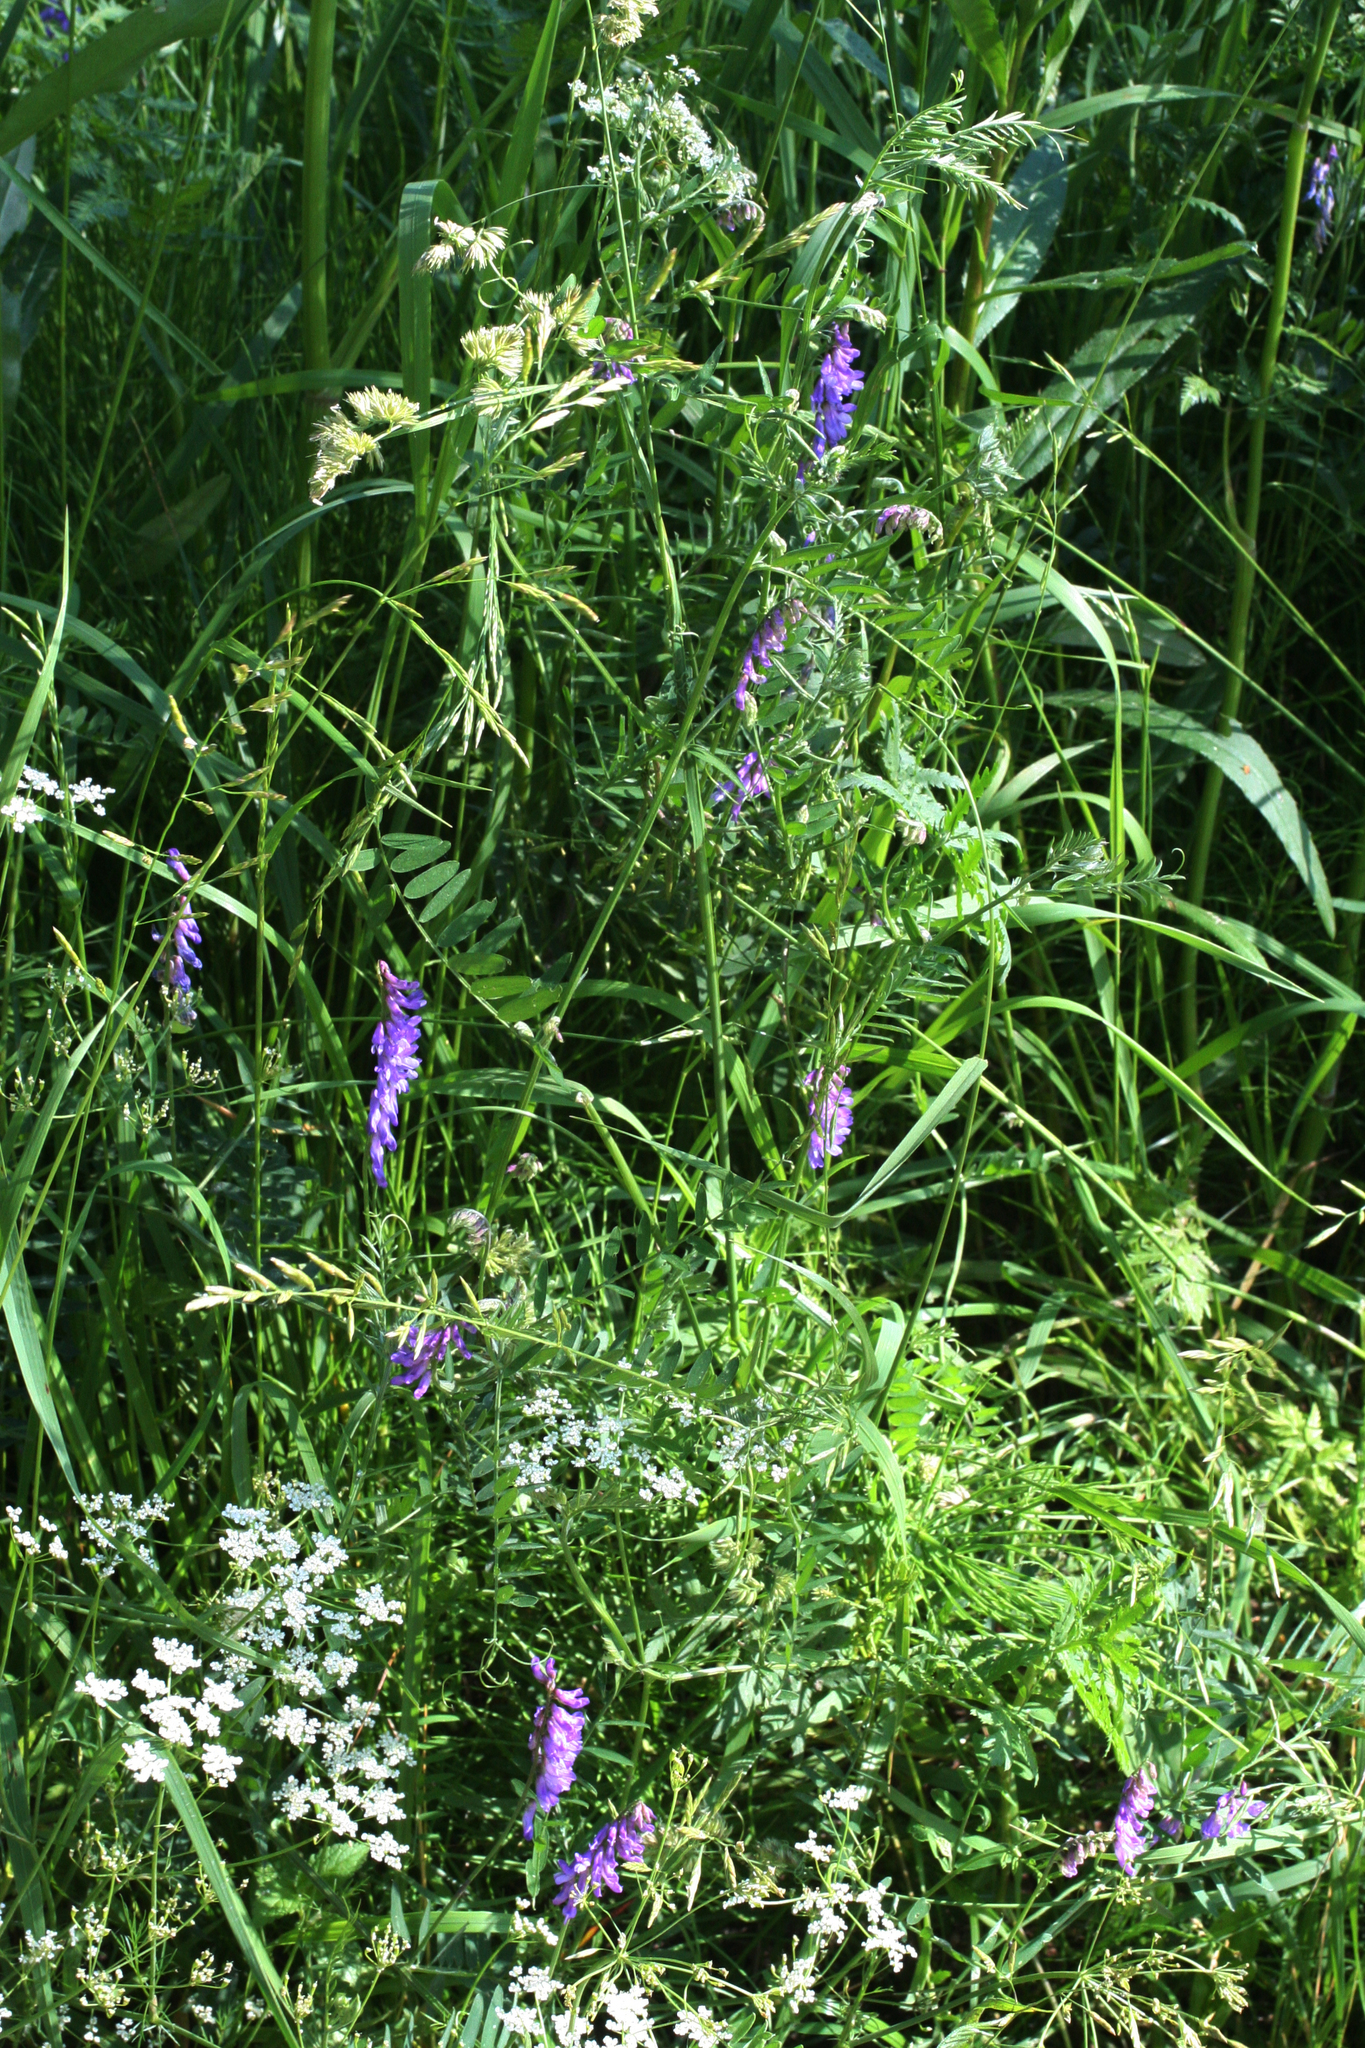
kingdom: Plantae
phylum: Tracheophyta
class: Magnoliopsida
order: Fabales
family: Fabaceae
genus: Vicia
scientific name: Vicia cracca
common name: Bird vetch
